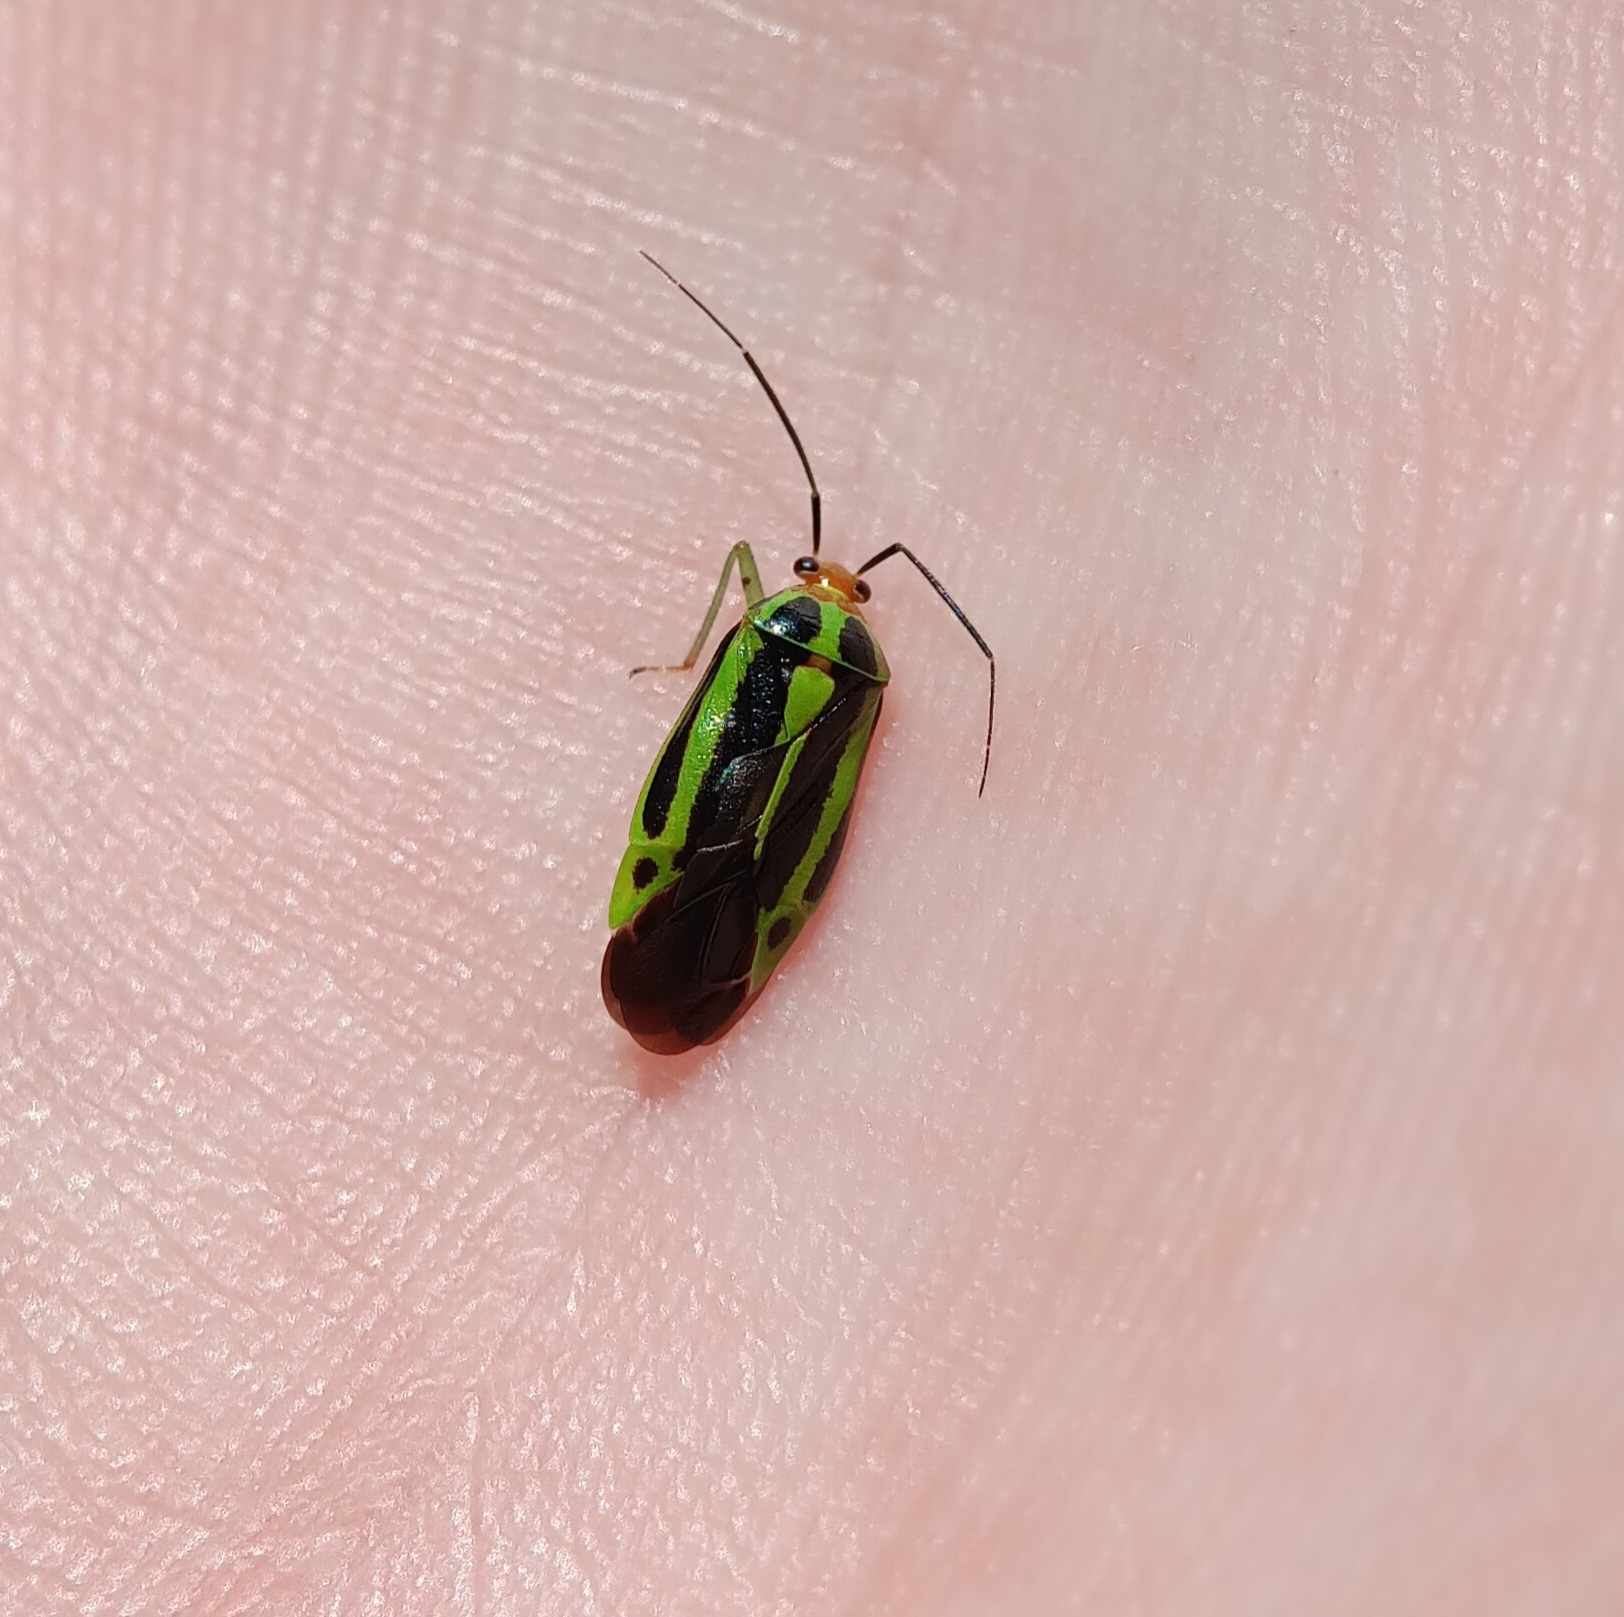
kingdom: Animalia
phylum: Arthropoda
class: Insecta
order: Hemiptera
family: Miridae
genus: Poecilocapsus
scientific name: Poecilocapsus lineatus
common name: Four-lined plant bug
